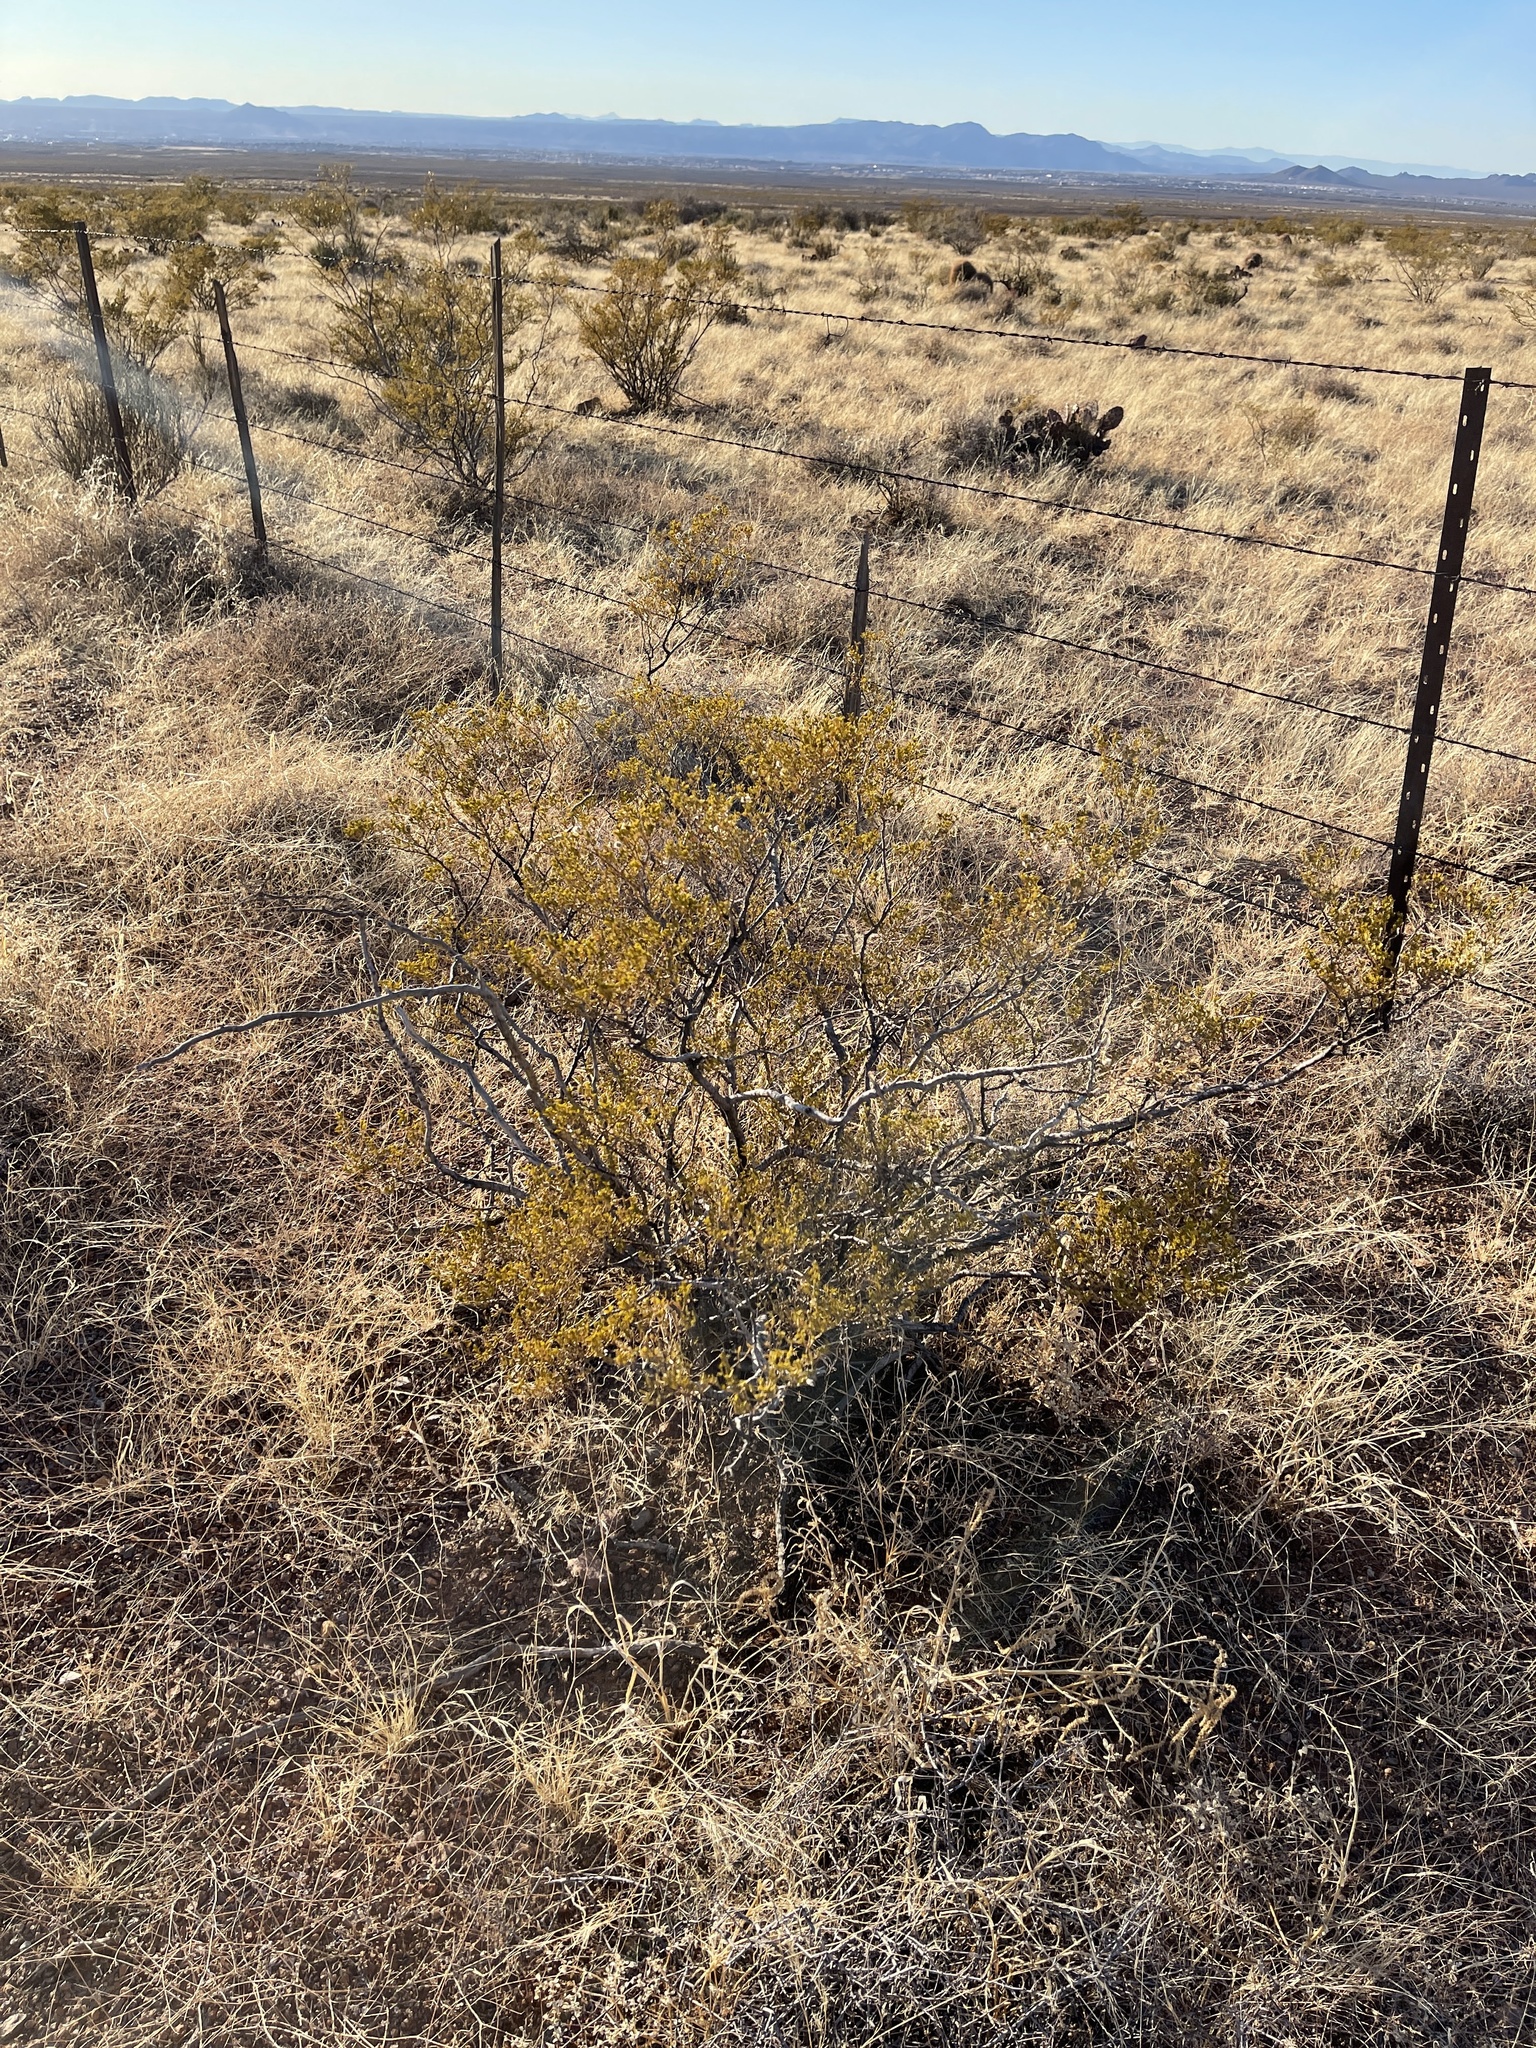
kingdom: Plantae
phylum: Tracheophyta
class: Magnoliopsida
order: Zygophyllales
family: Zygophyllaceae
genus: Larrea
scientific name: Larrea tridentata
